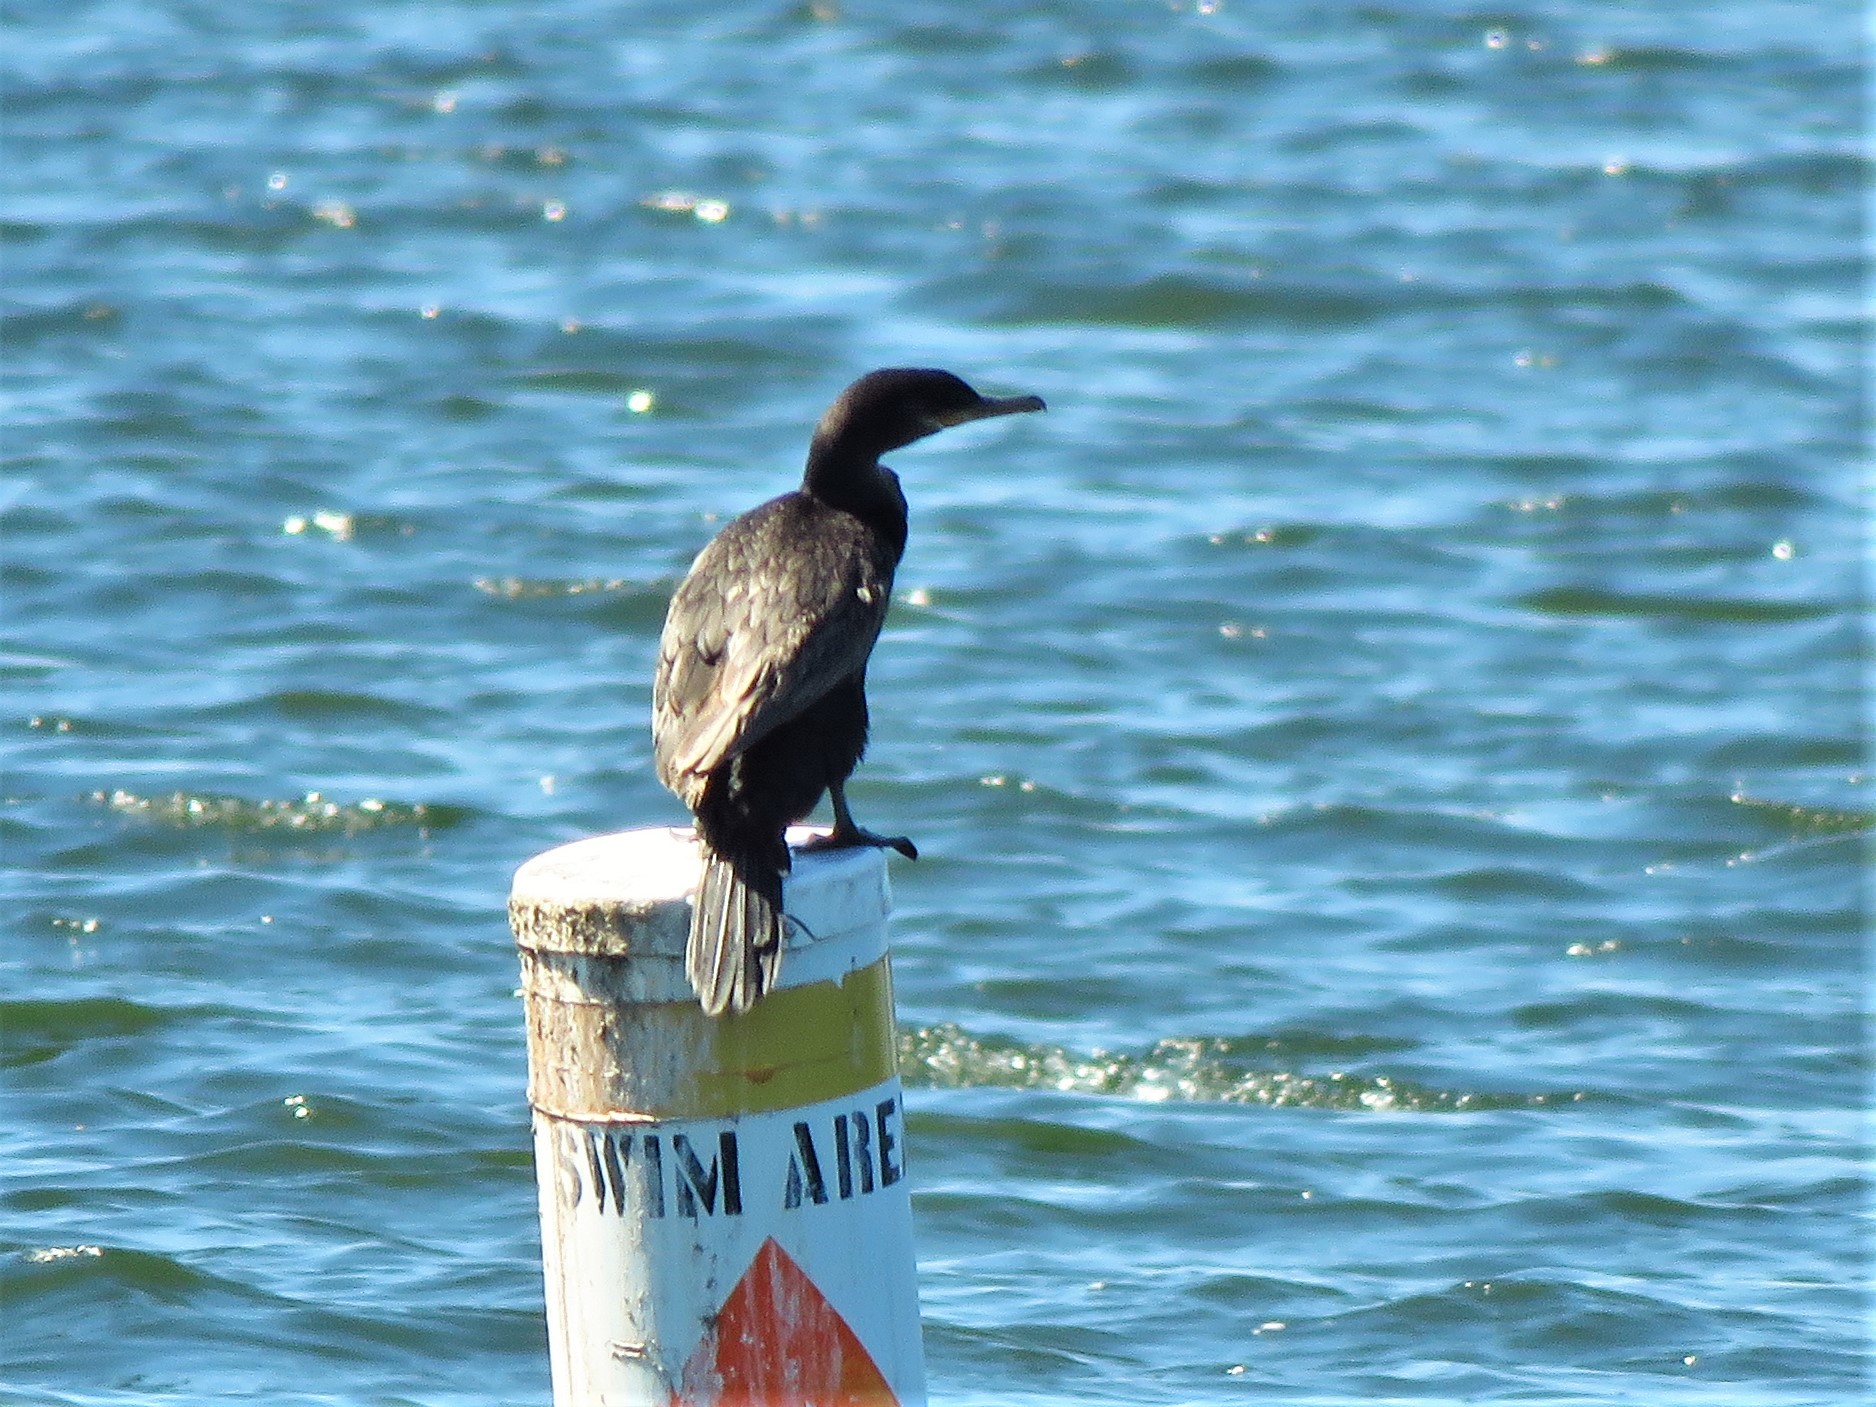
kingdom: Animalia
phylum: Chordata
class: Aves
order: Suliformes
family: Phalacrocoracidae
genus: Phalacrocorax
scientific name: Phalacrocorax brasilianus
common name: Neotropic cormorant
